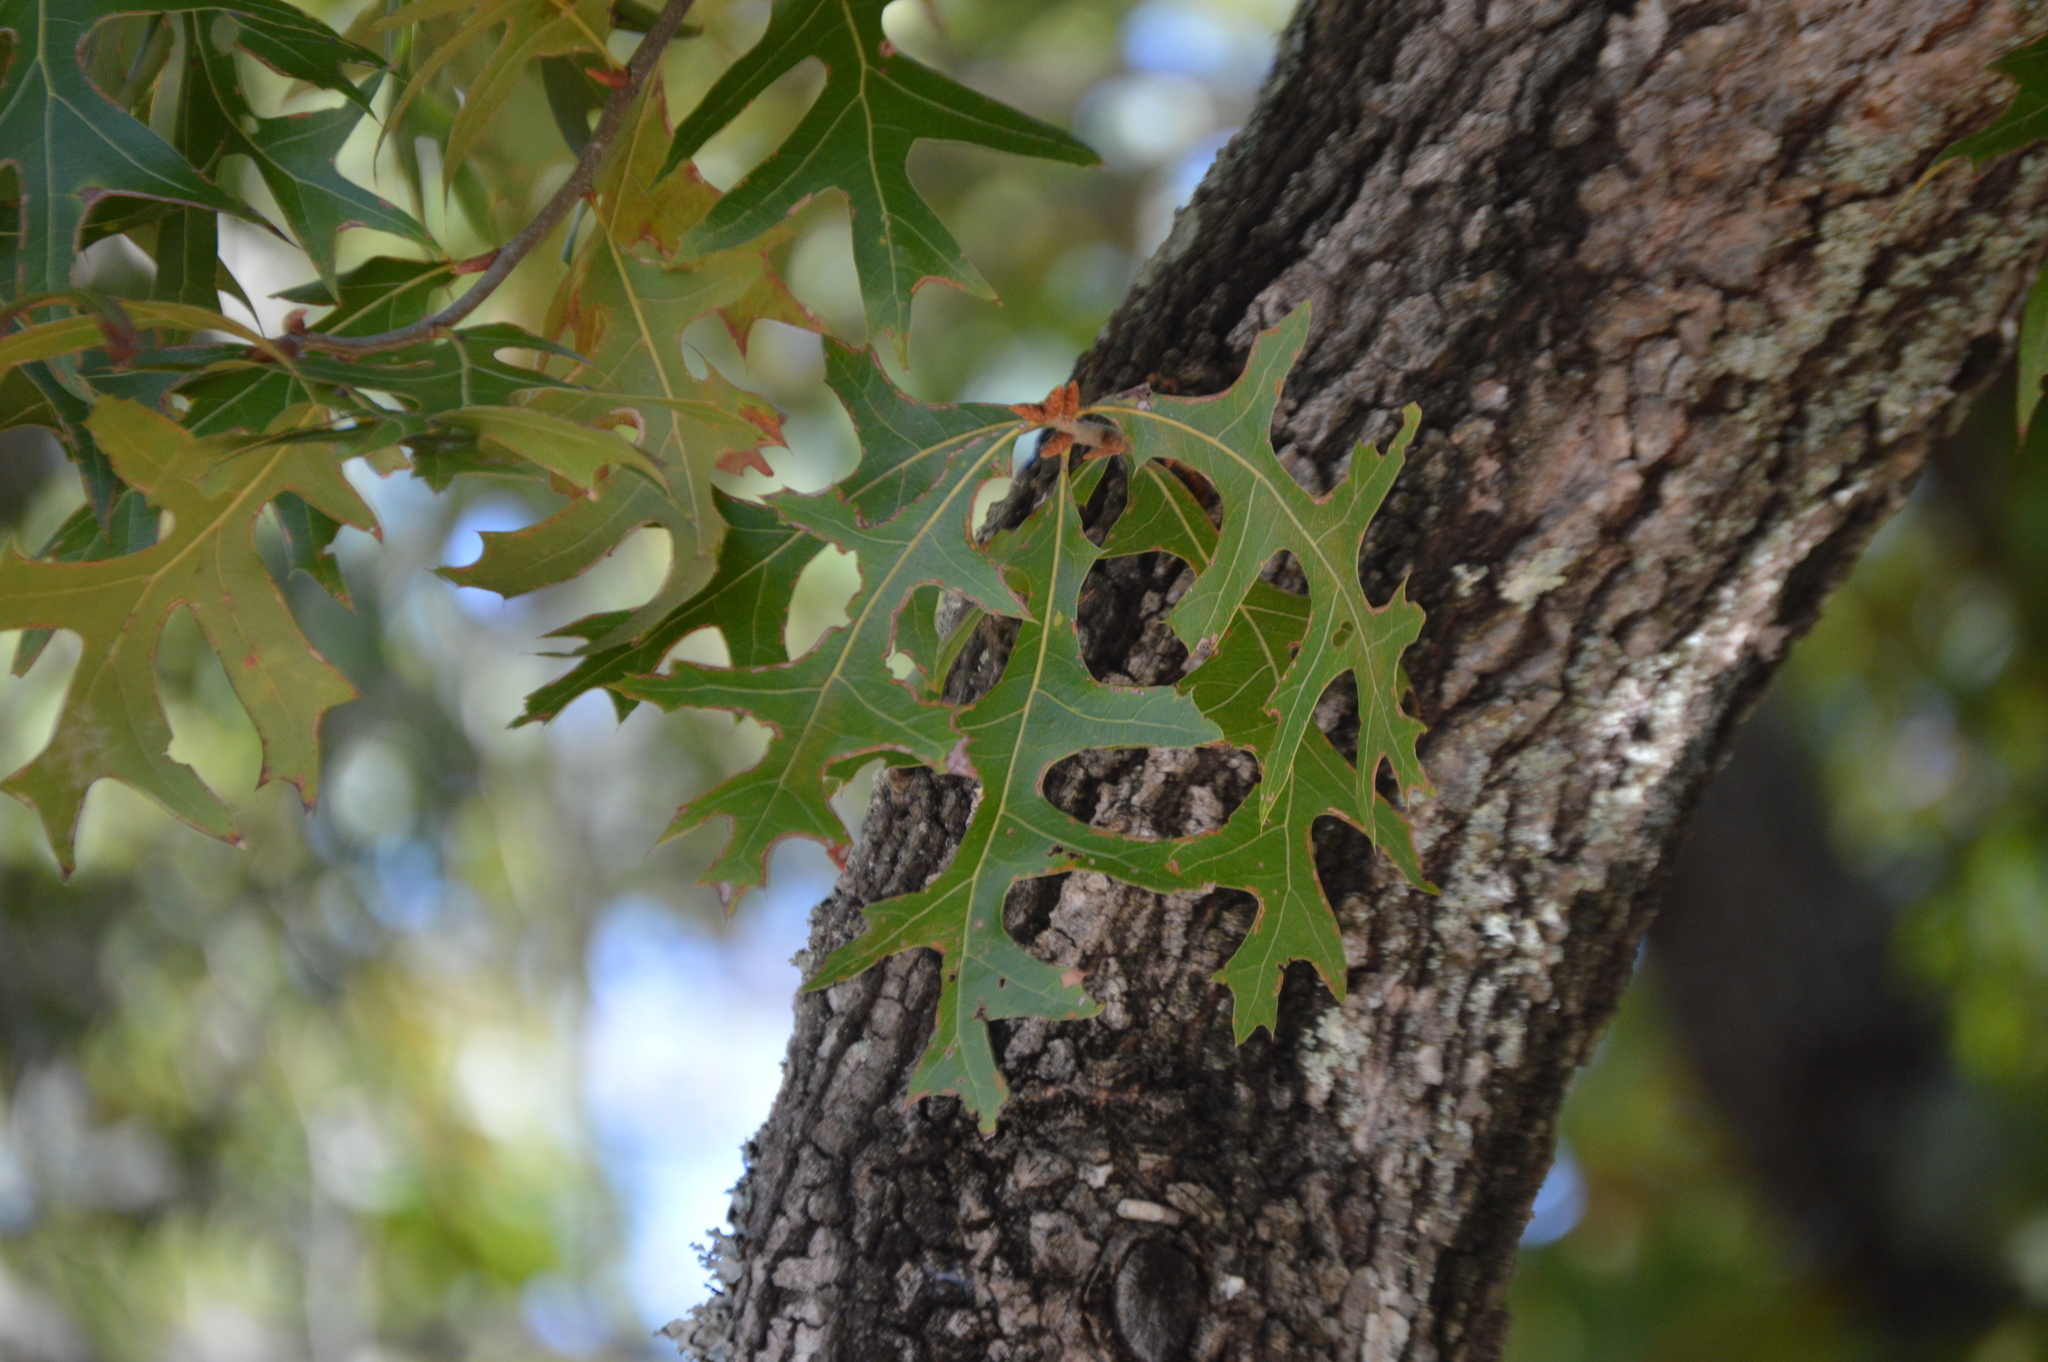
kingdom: Plantae
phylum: Tracheophyta
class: Magnoliopsida
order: Fagales
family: Fagaceae
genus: Quercus
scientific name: Quercus laevis
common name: Turkey oak
